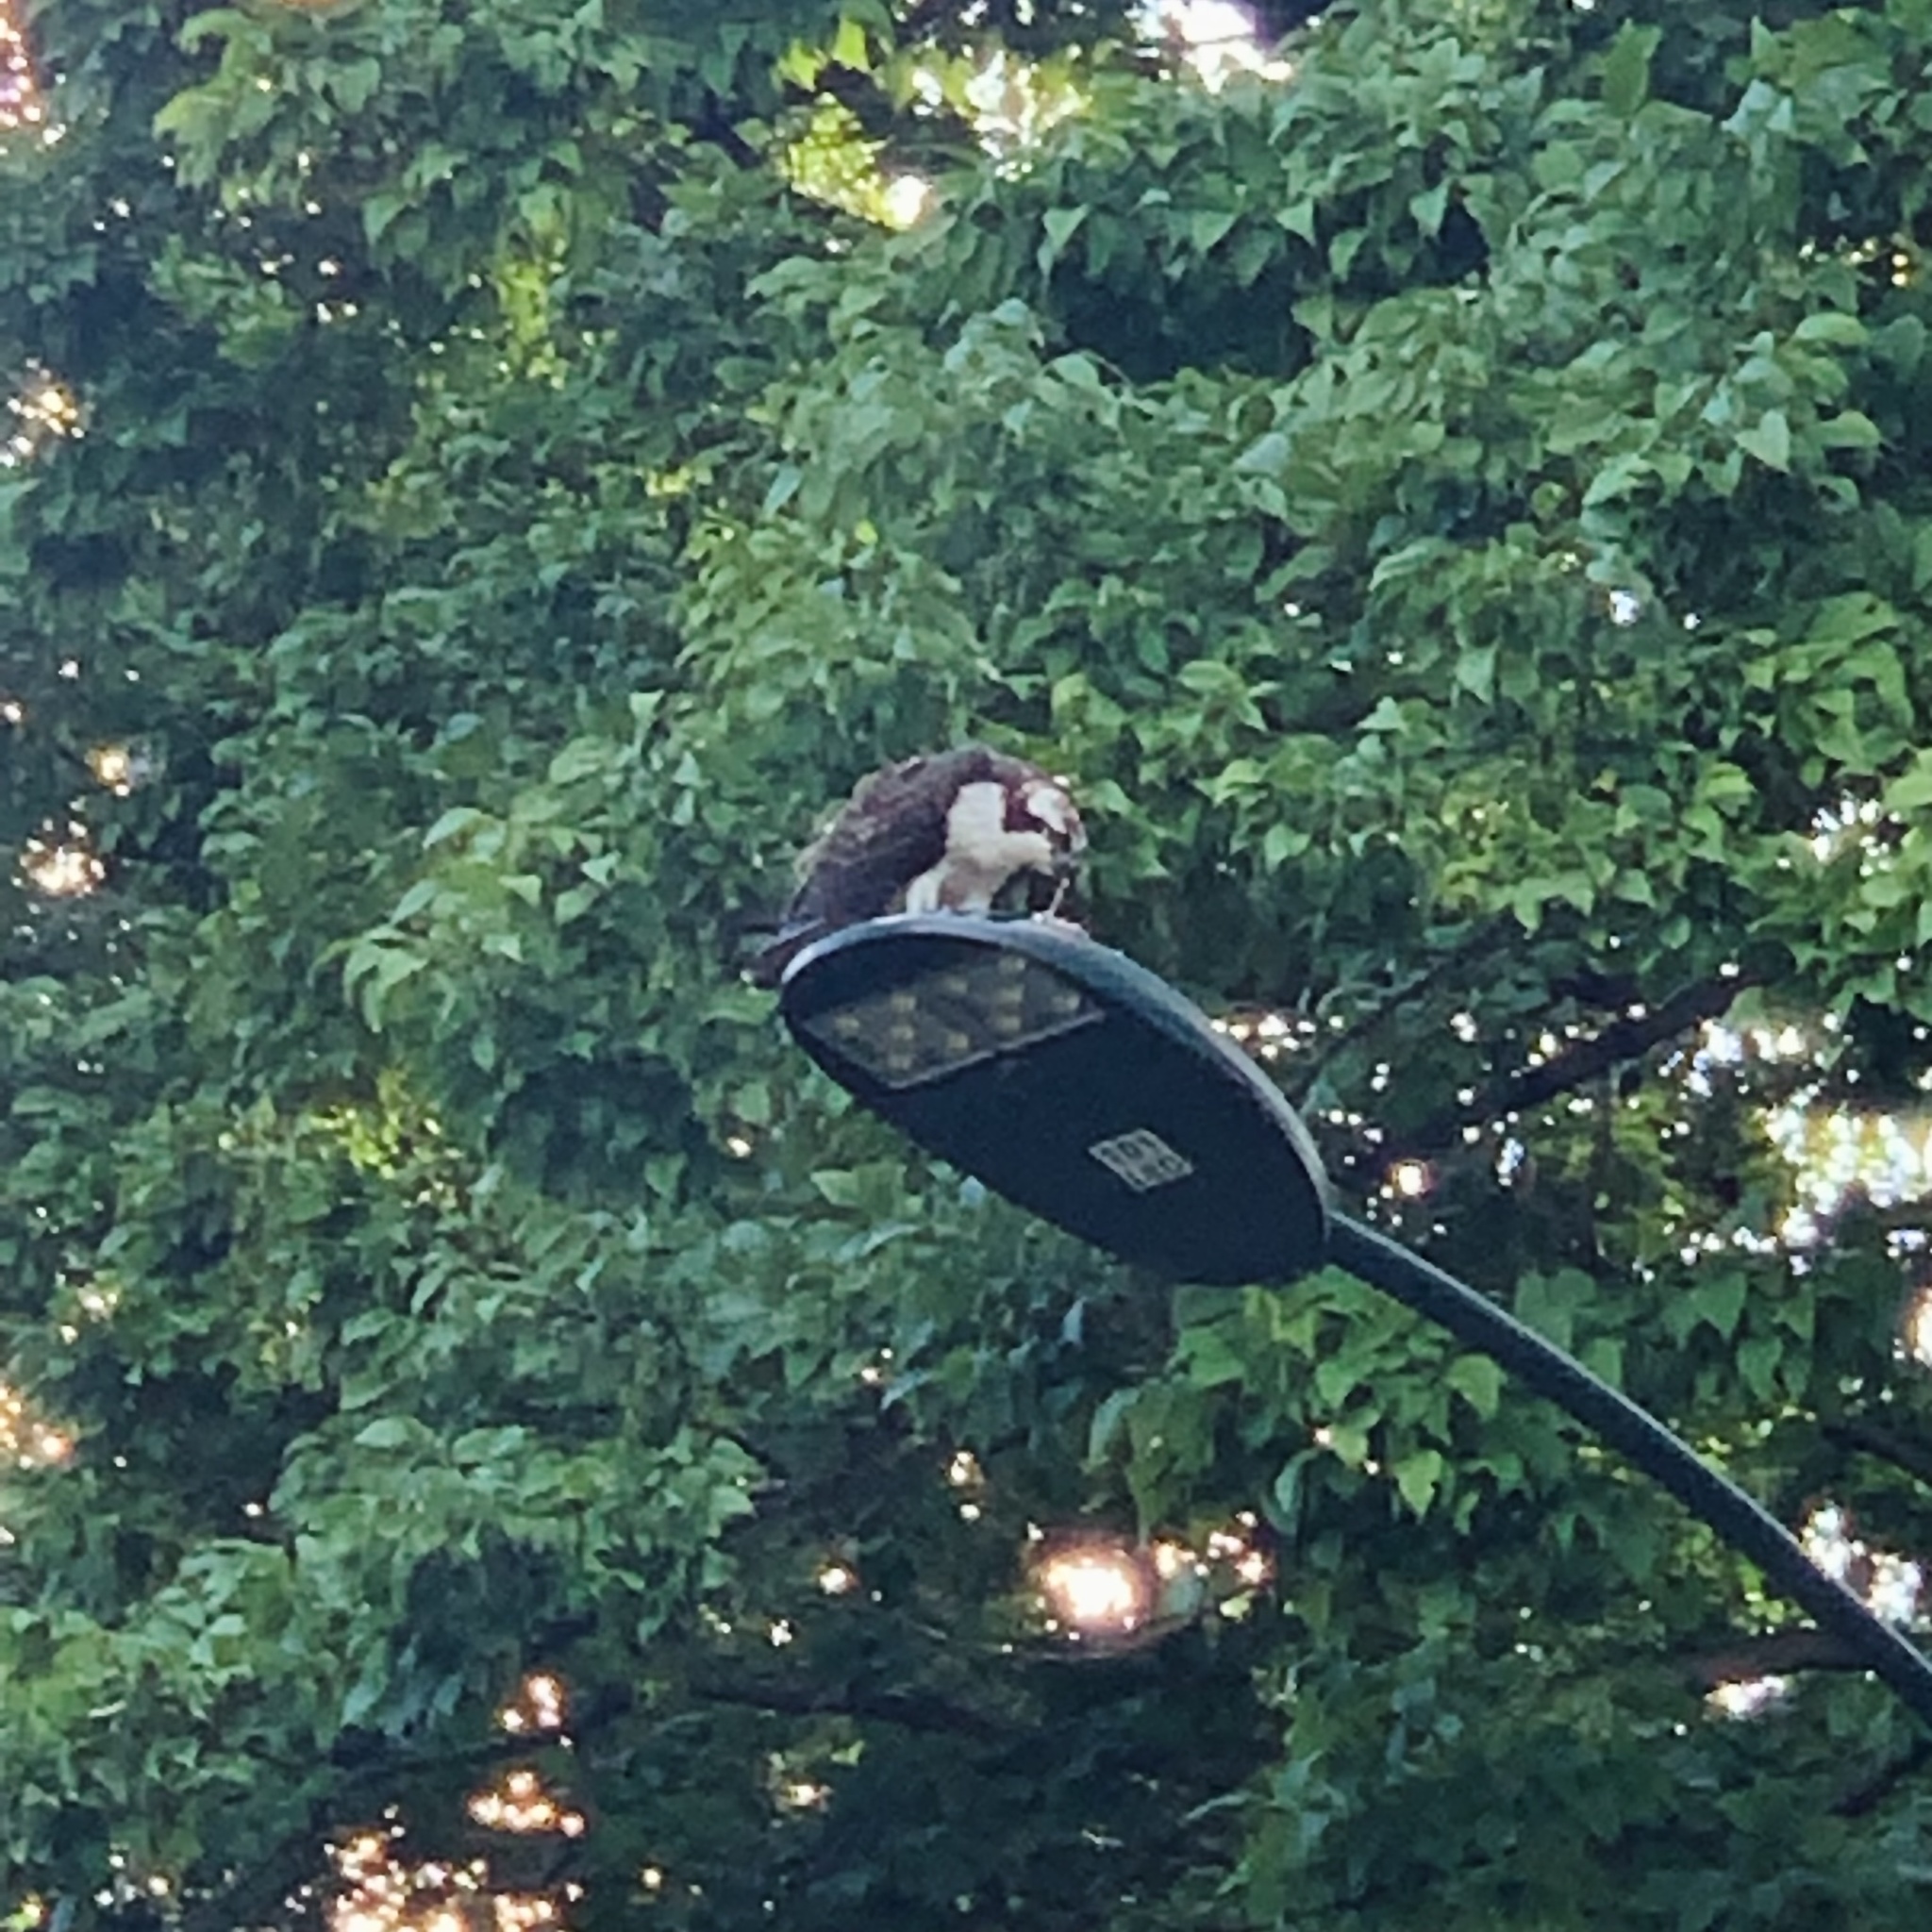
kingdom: Animalia
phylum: Chordata
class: Aves
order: Accipitriformes
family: Pandionidae
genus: Pandion
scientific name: Pandion haliaetus
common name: Osprey
